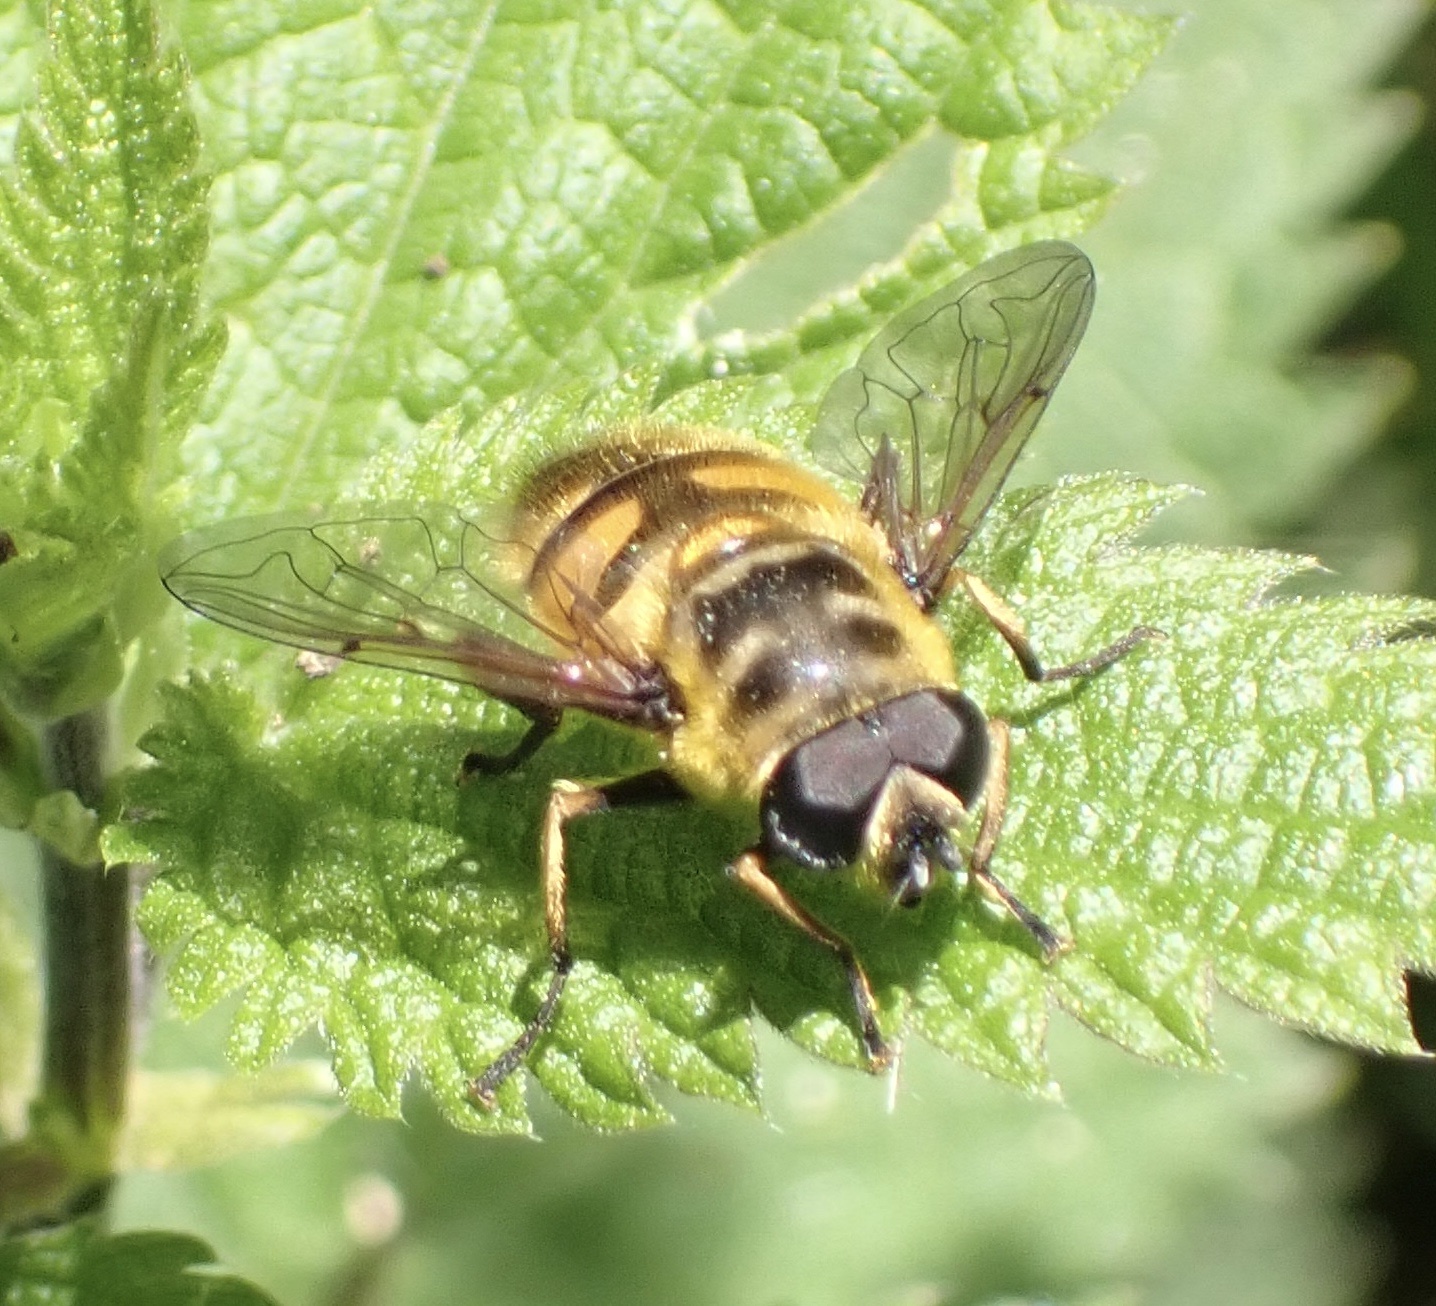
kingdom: Animalia
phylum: Arthropoda
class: Insecta
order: Diptera
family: Syrphidae
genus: Myathropa
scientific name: Myathropa florea
